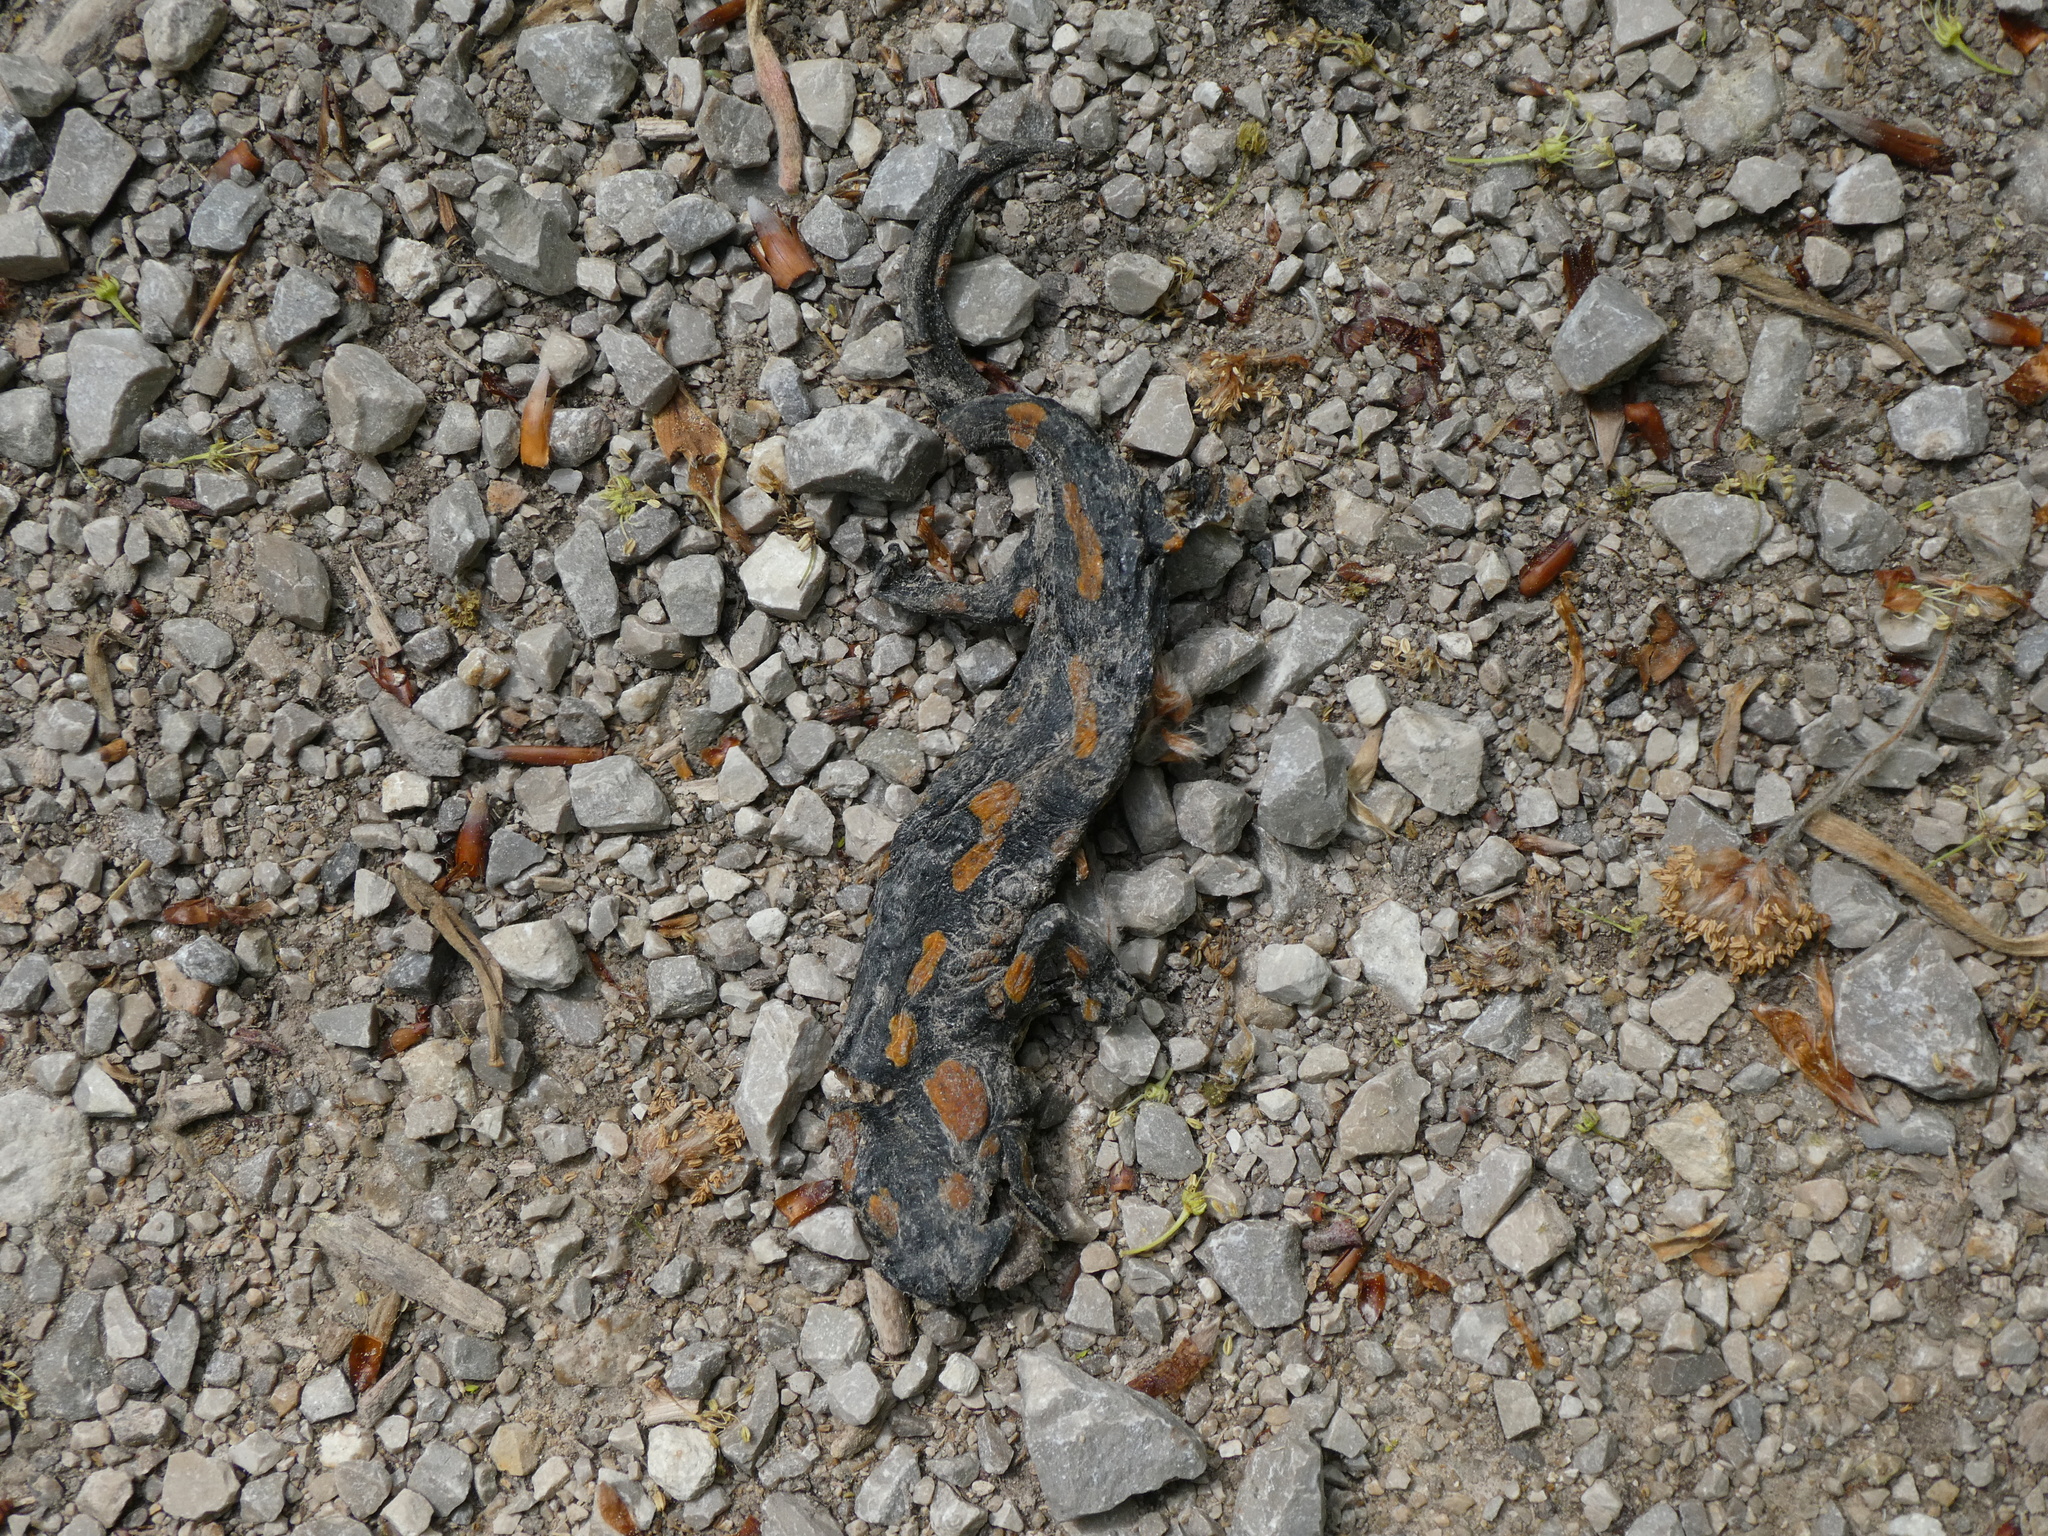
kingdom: Animalia
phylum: Chordata
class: Amphibia
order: Caudata
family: Salamandridae
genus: Salamandra
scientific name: Salamandra salamandra
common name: Fire salamander
